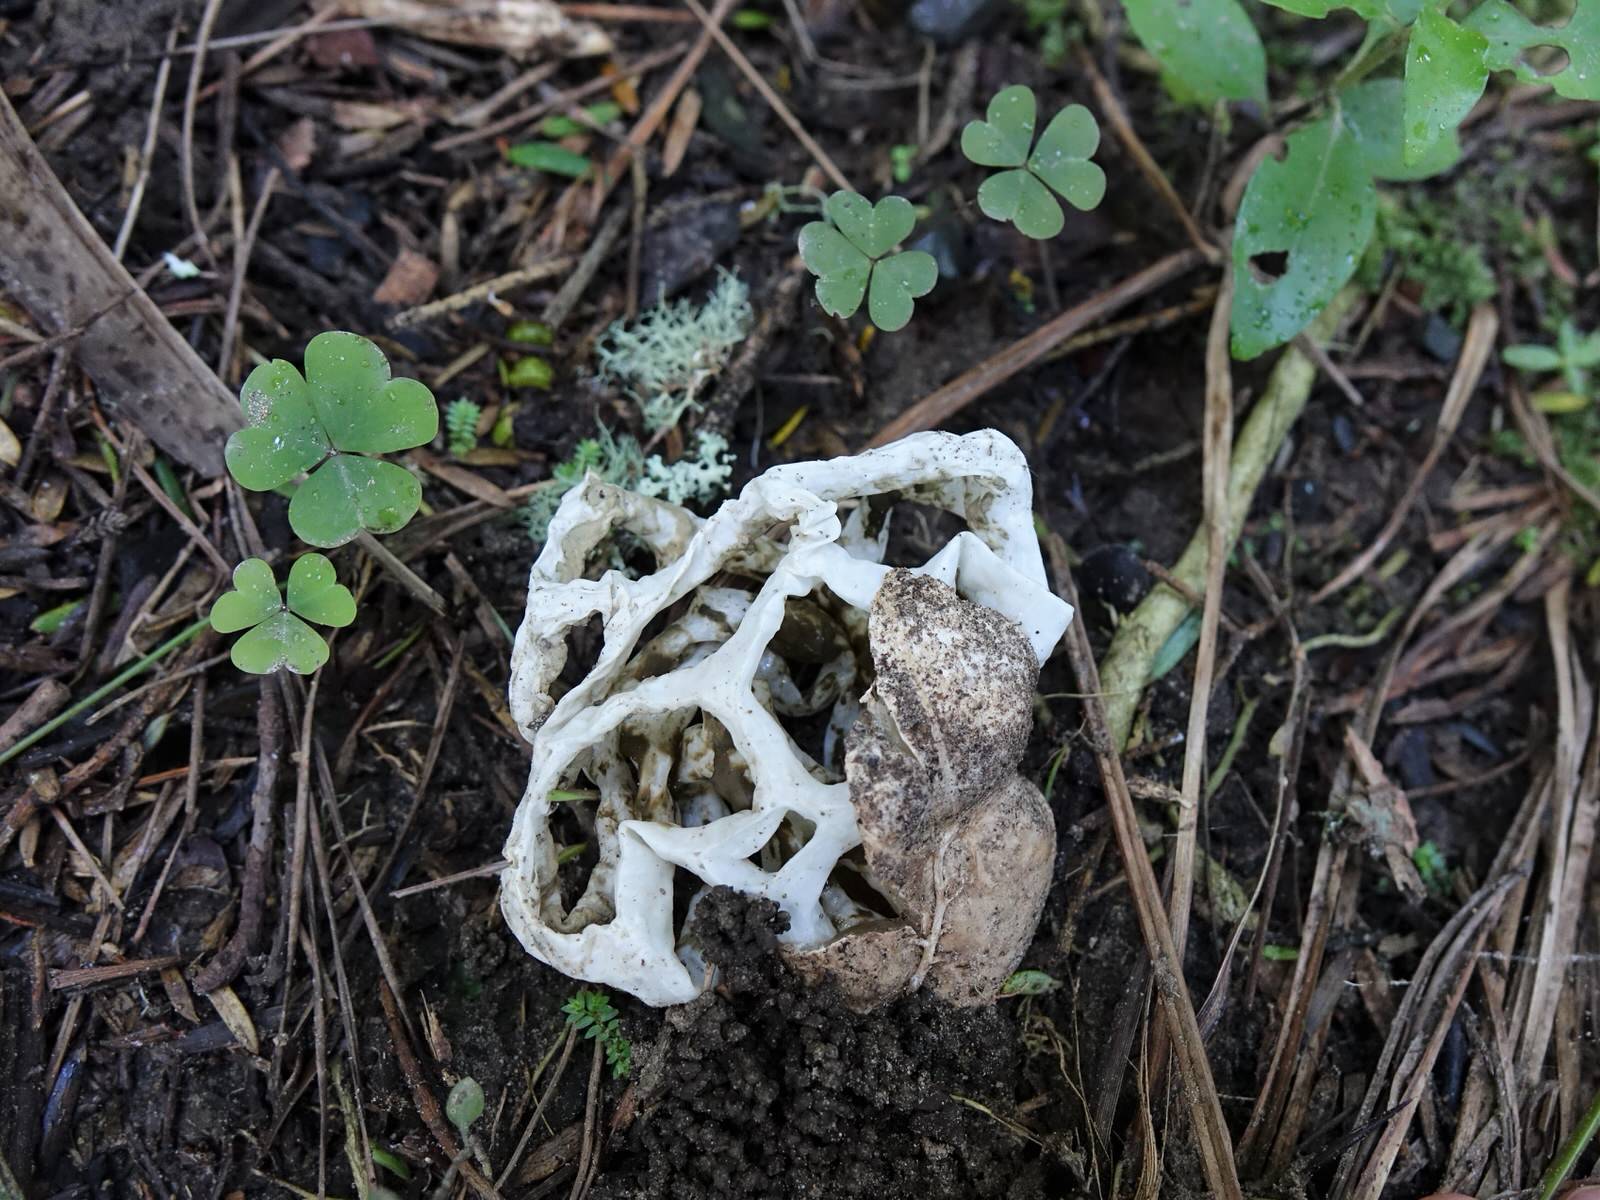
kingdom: Fungi
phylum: Basidiomycota
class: Agaricomycetes
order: Phallales
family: Phallaceae
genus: Ileodictyon
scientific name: Ileodictyon cibarium
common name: Basket fungus
